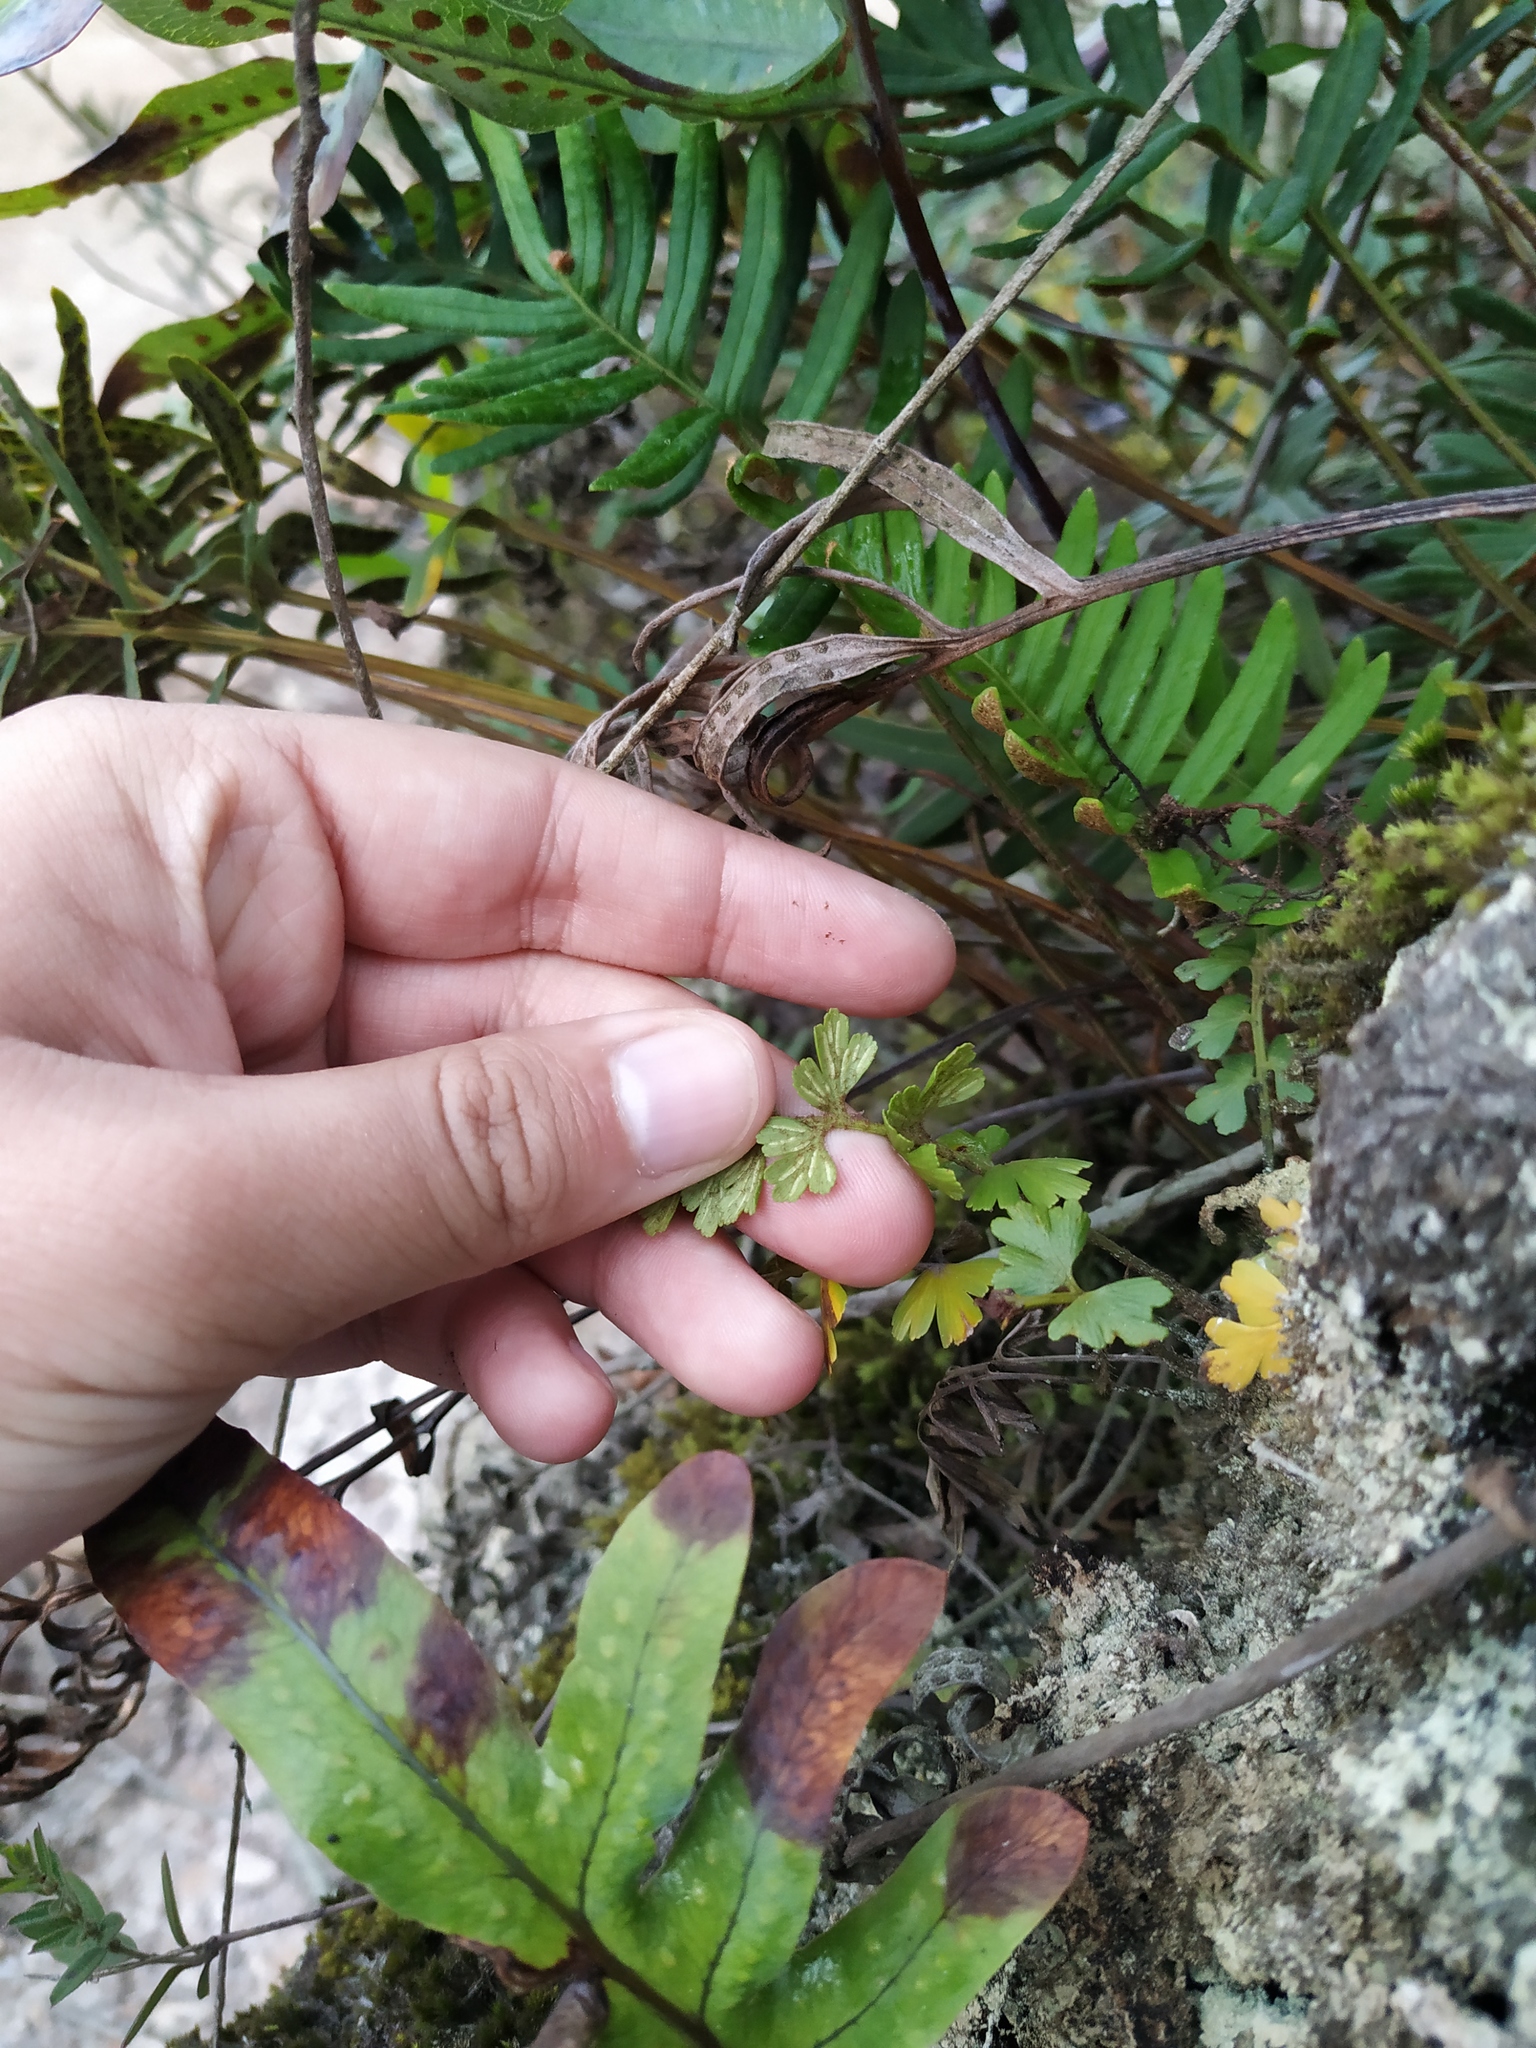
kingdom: Plantae
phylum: Tracheophyta
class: Polypodiopsida
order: Polypodiales
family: Aspleniaceae
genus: Asplenium
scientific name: Asplenium praemorsum
